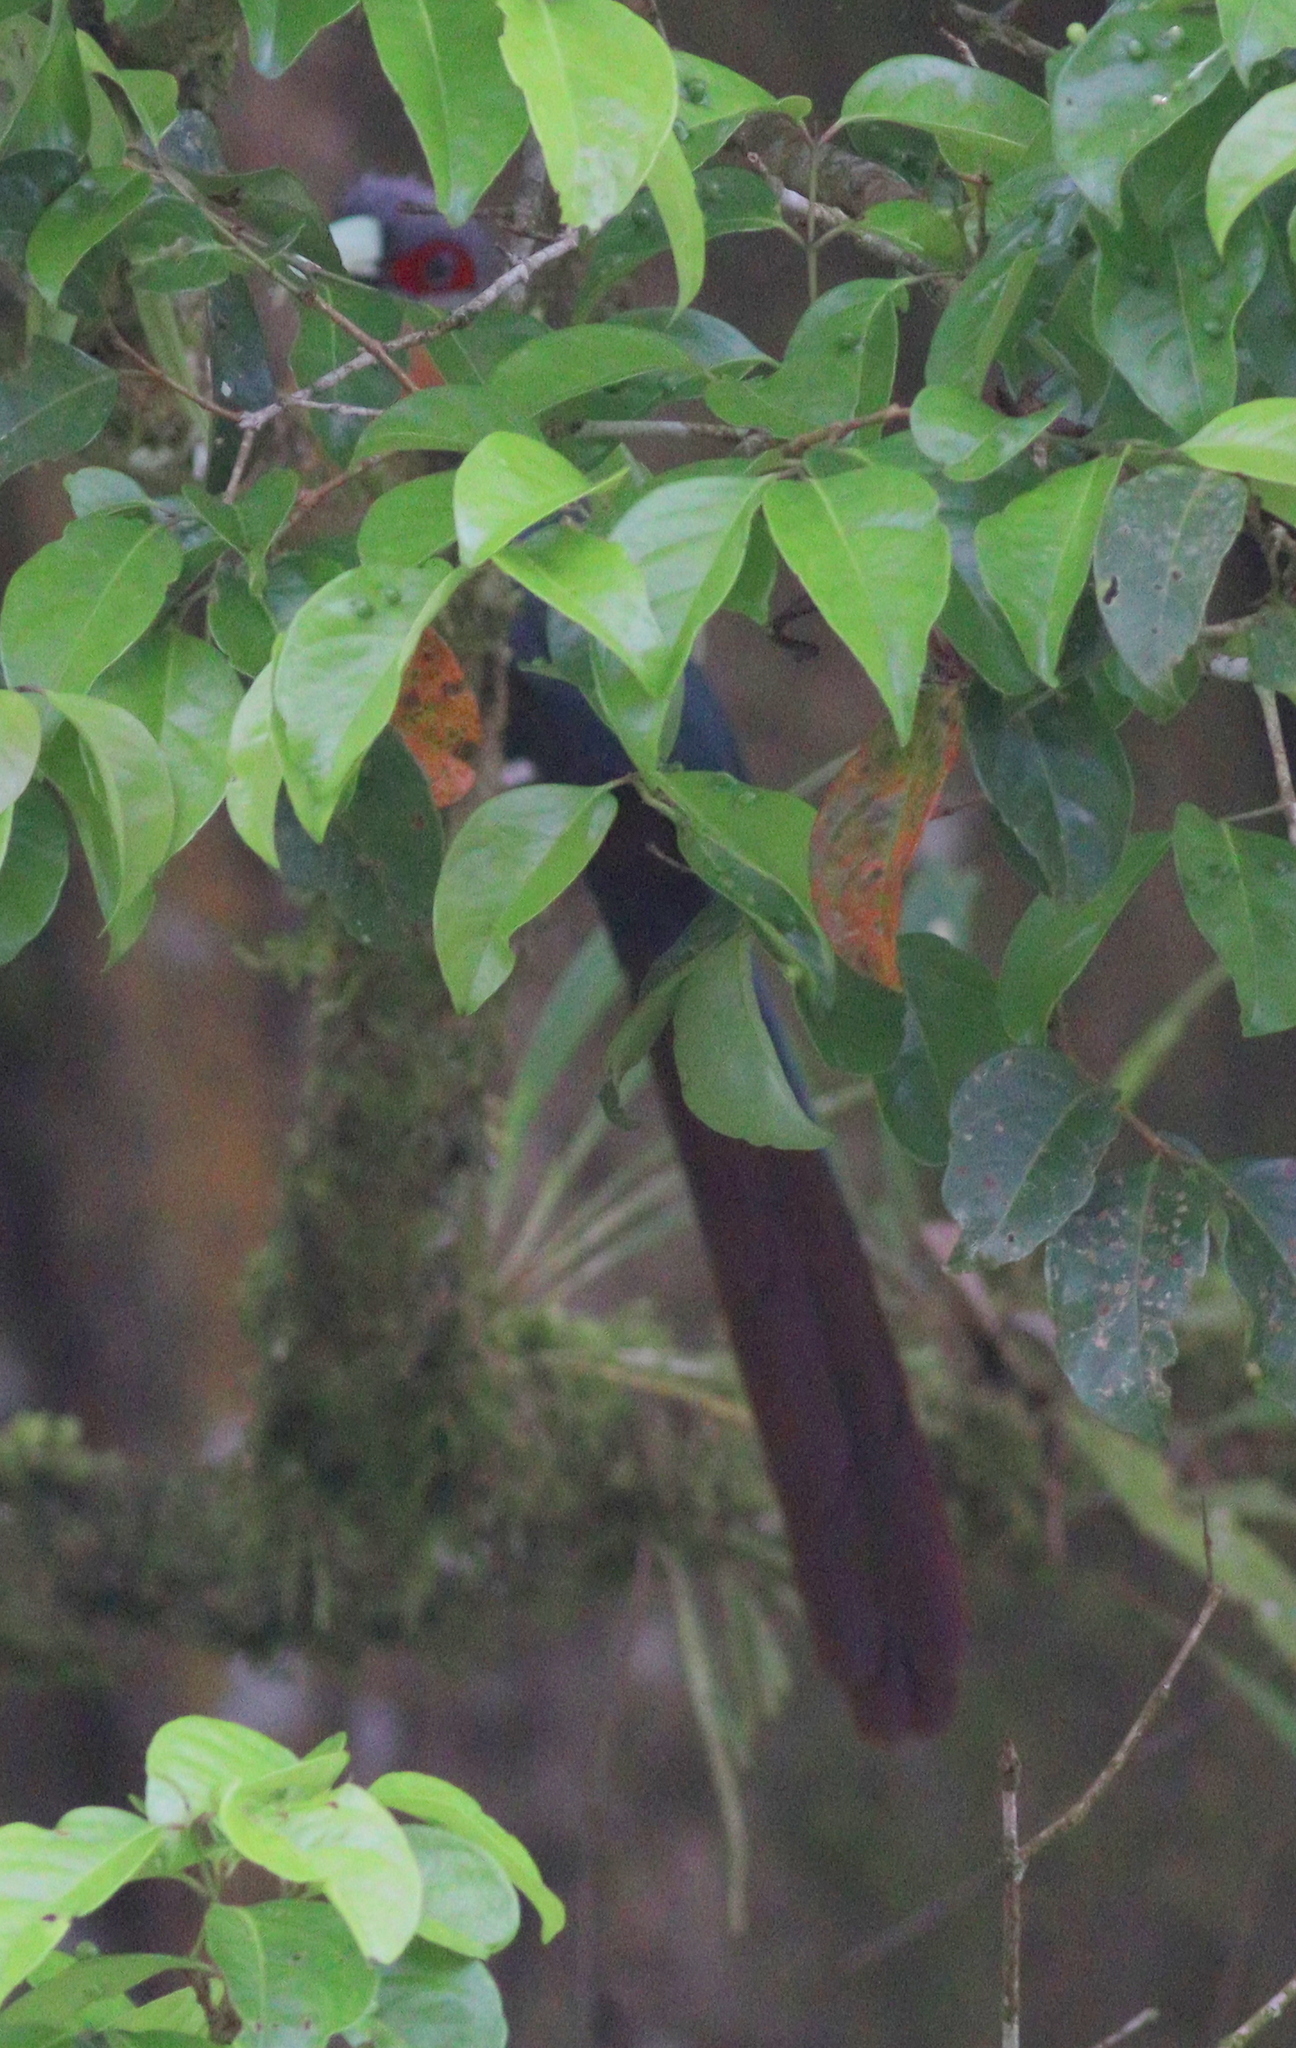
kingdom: Animalia
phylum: Chordata
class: Aves
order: Cuculiformes
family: Cuculidae
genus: Zanclostomus
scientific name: Zanclostomus curvirostris
